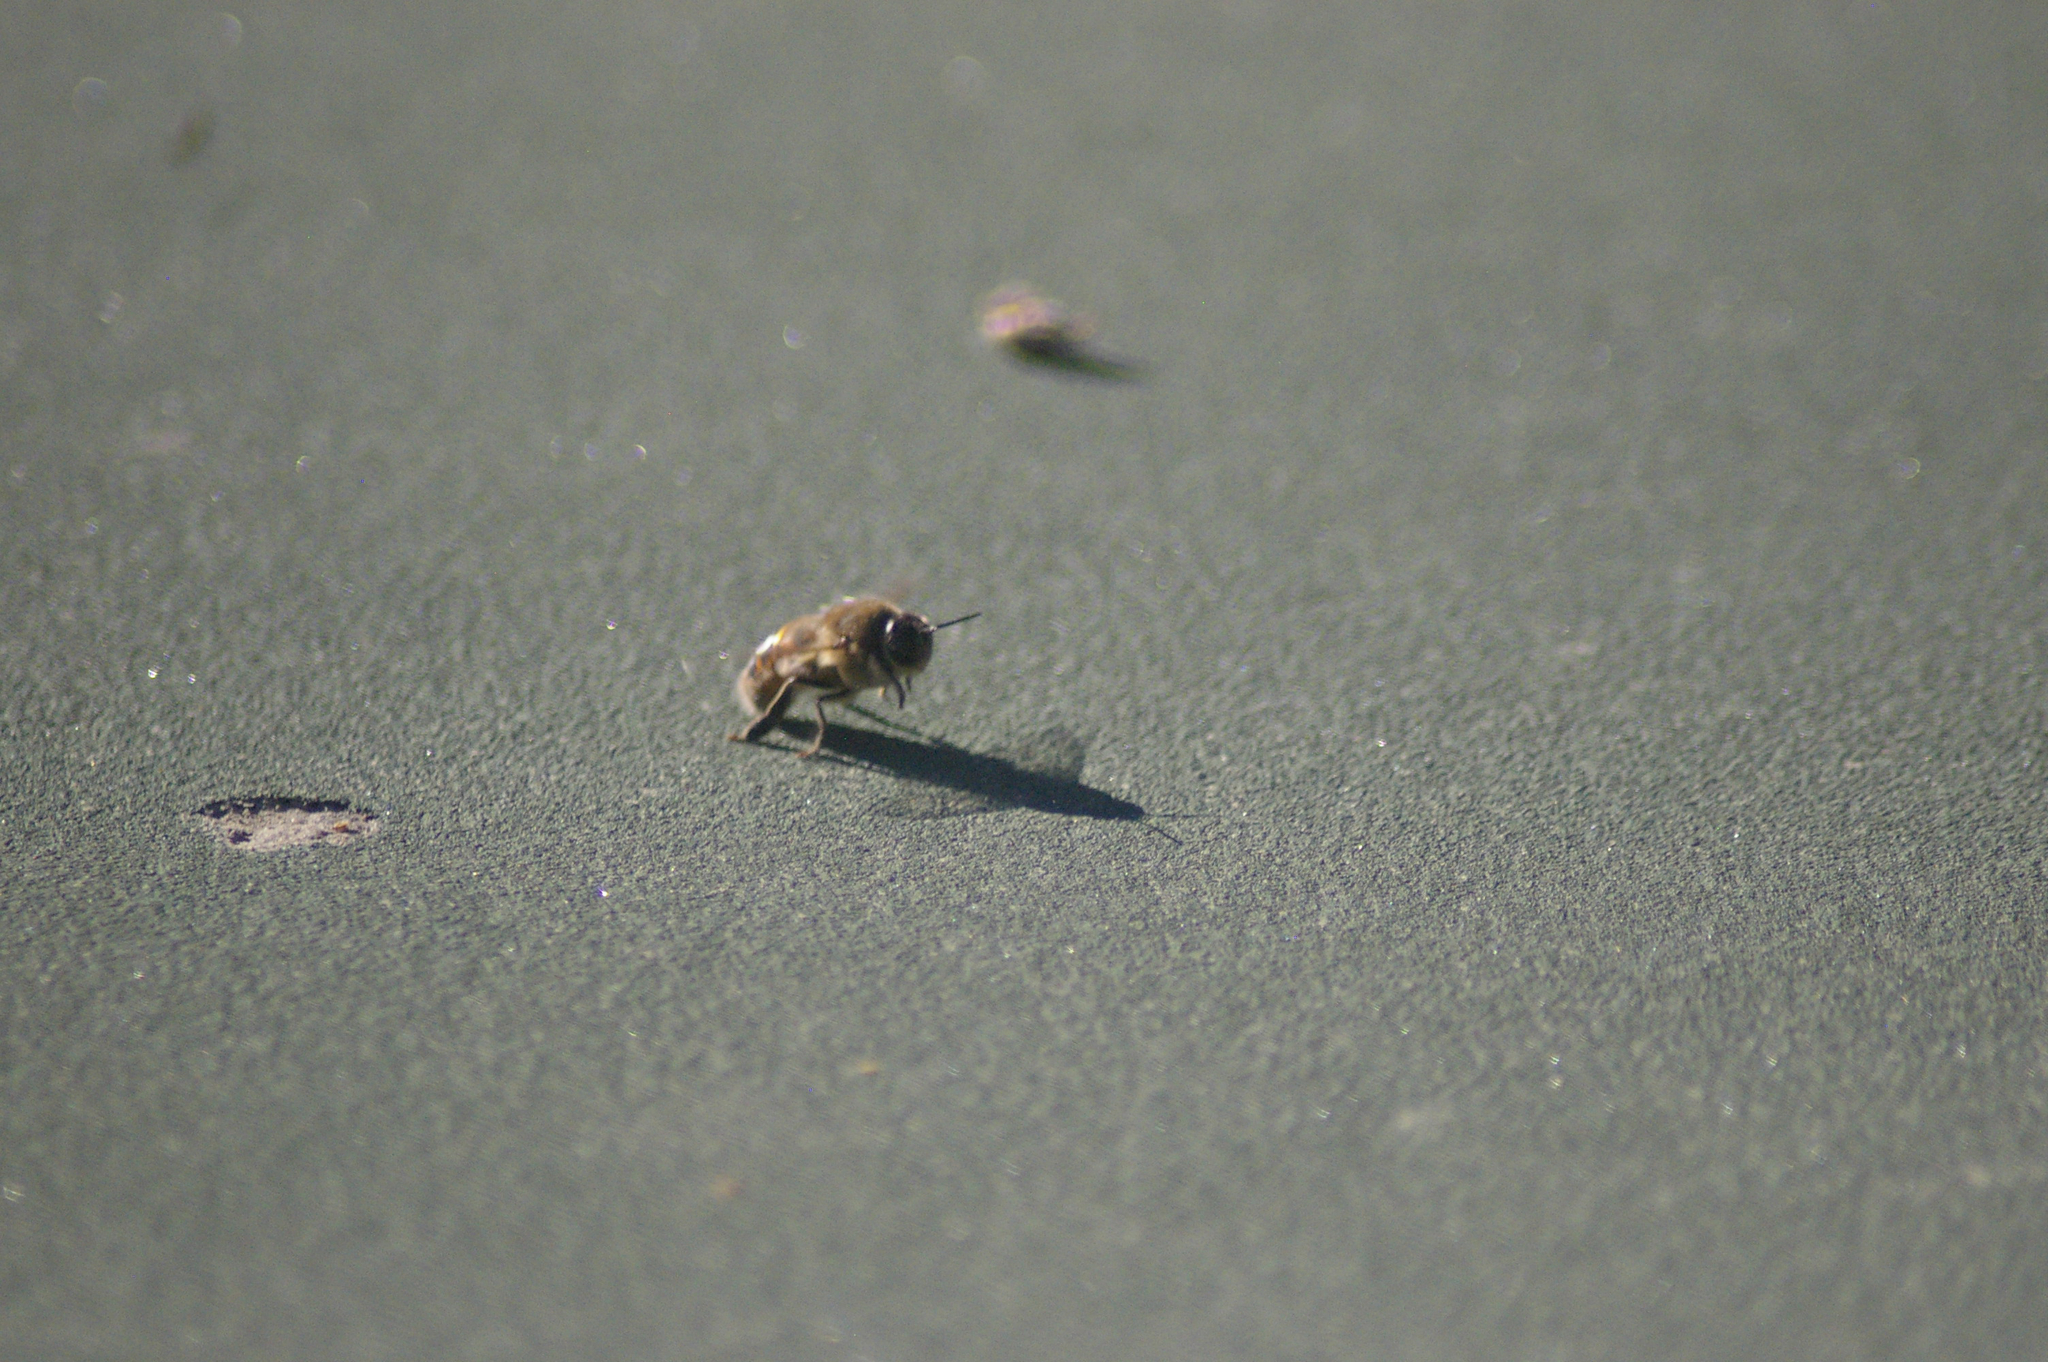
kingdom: Animalia
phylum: Arthropoda
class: Insecta
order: Hymenoptera
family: Apidae
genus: Apis
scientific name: Apis mellifera
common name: Honey bee
